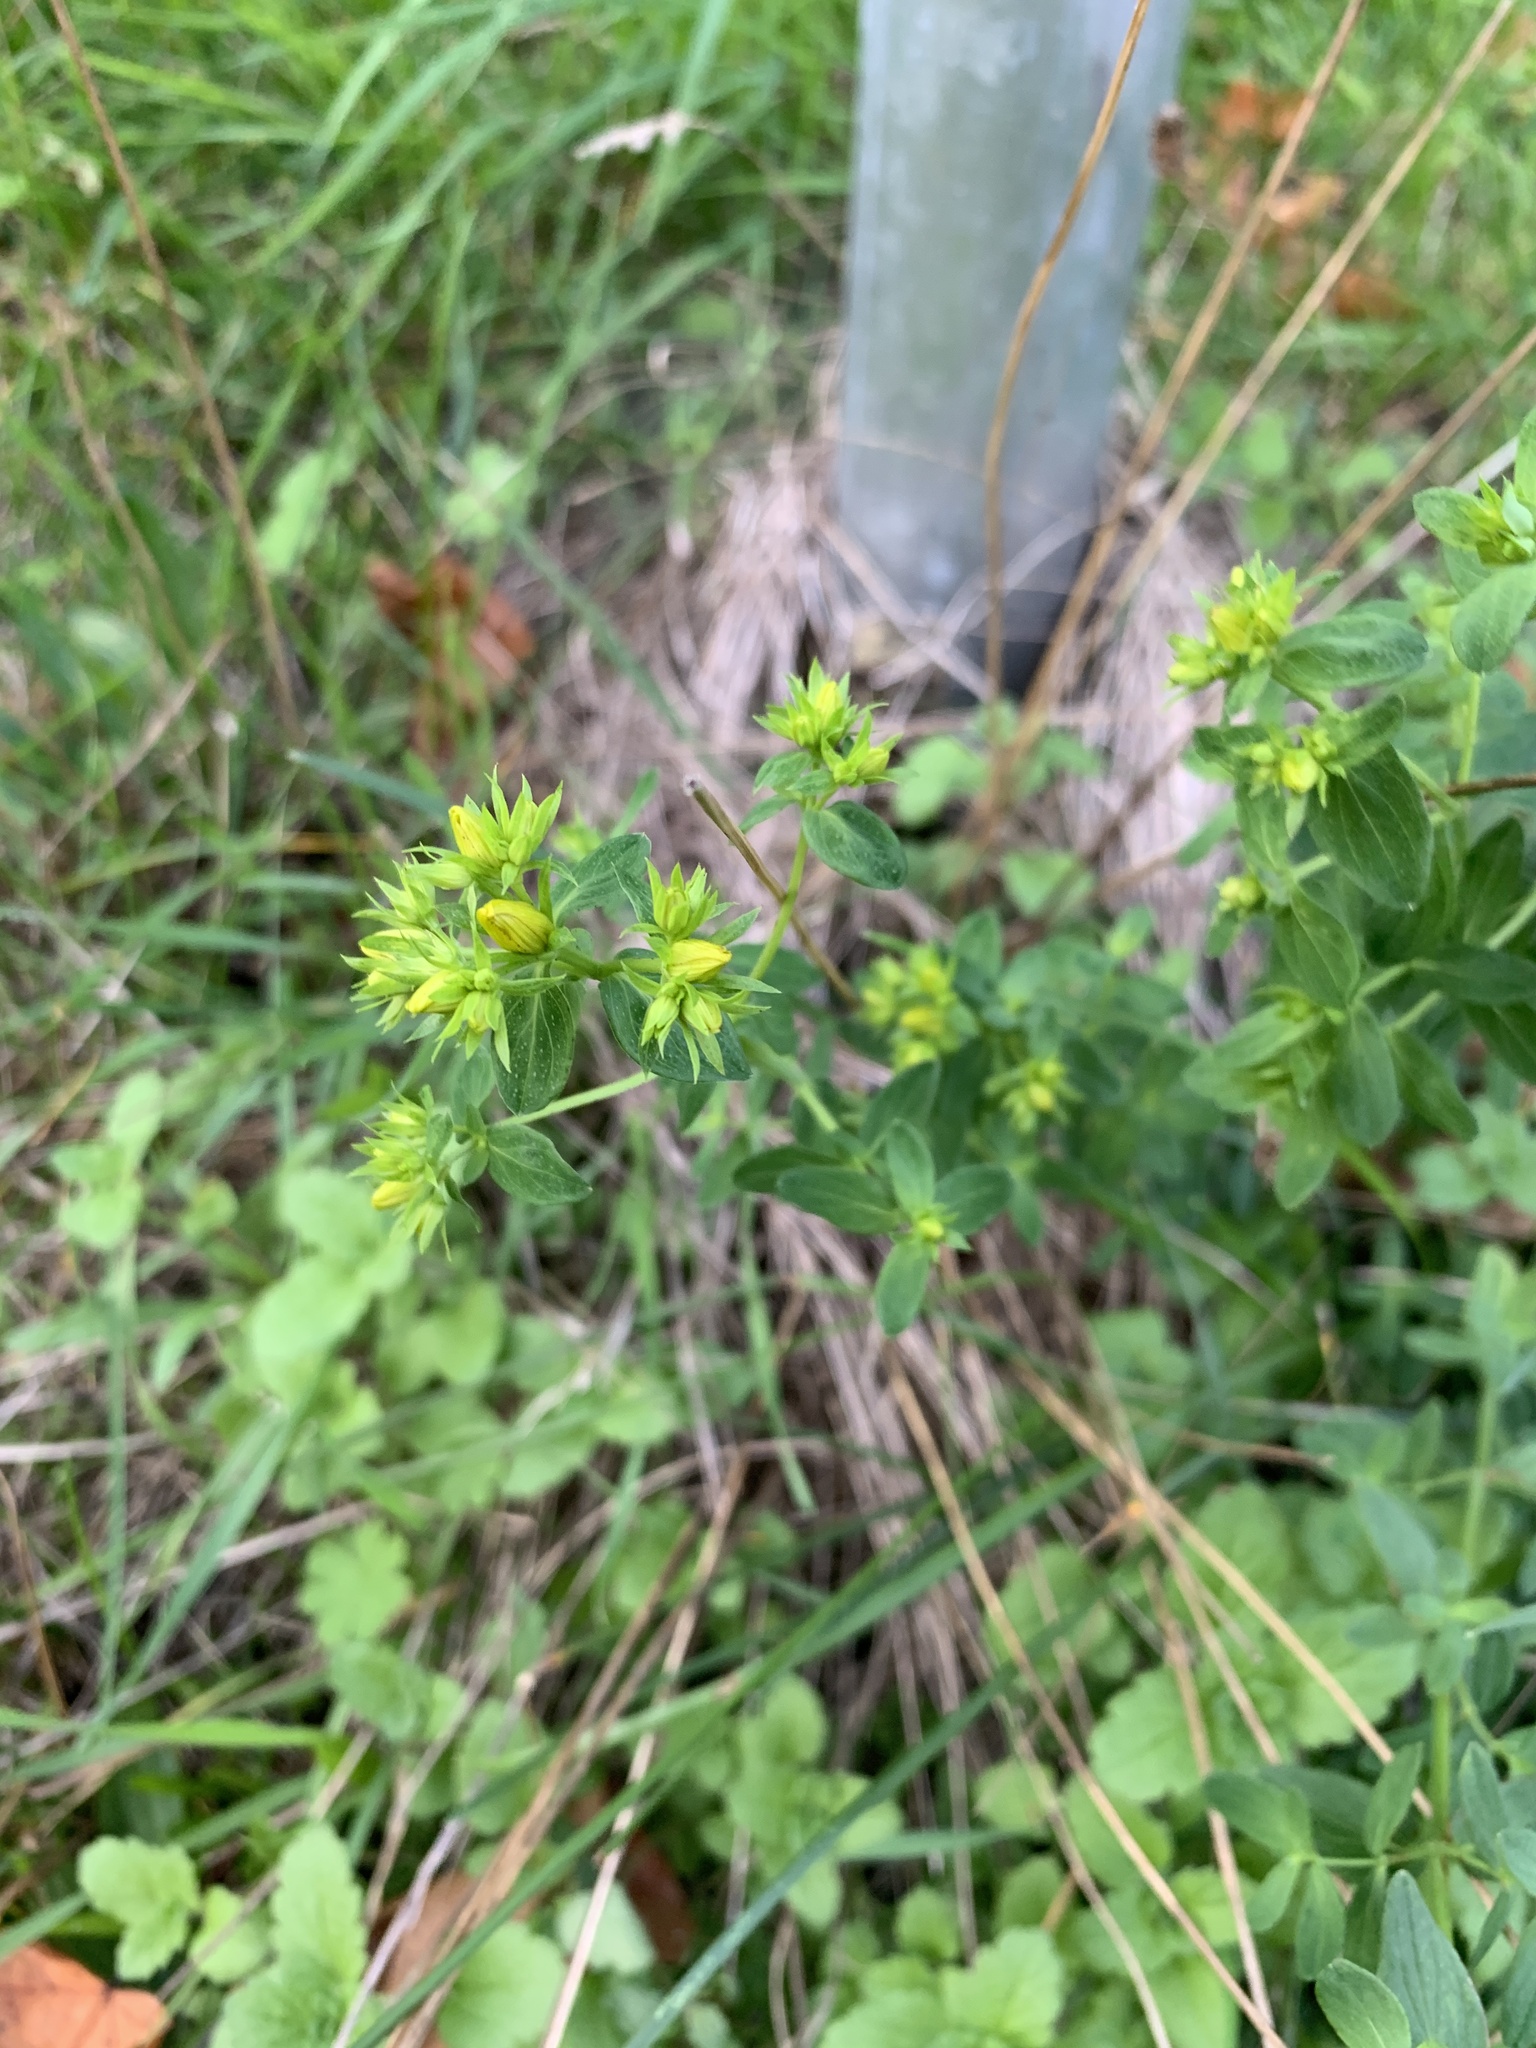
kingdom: Plantae
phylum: Tracheophyta
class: Magnoliopsida
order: Malpighiales
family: Hypericaceae
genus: Hypericum
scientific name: Hypericum perforatum
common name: Common st. johnswort
